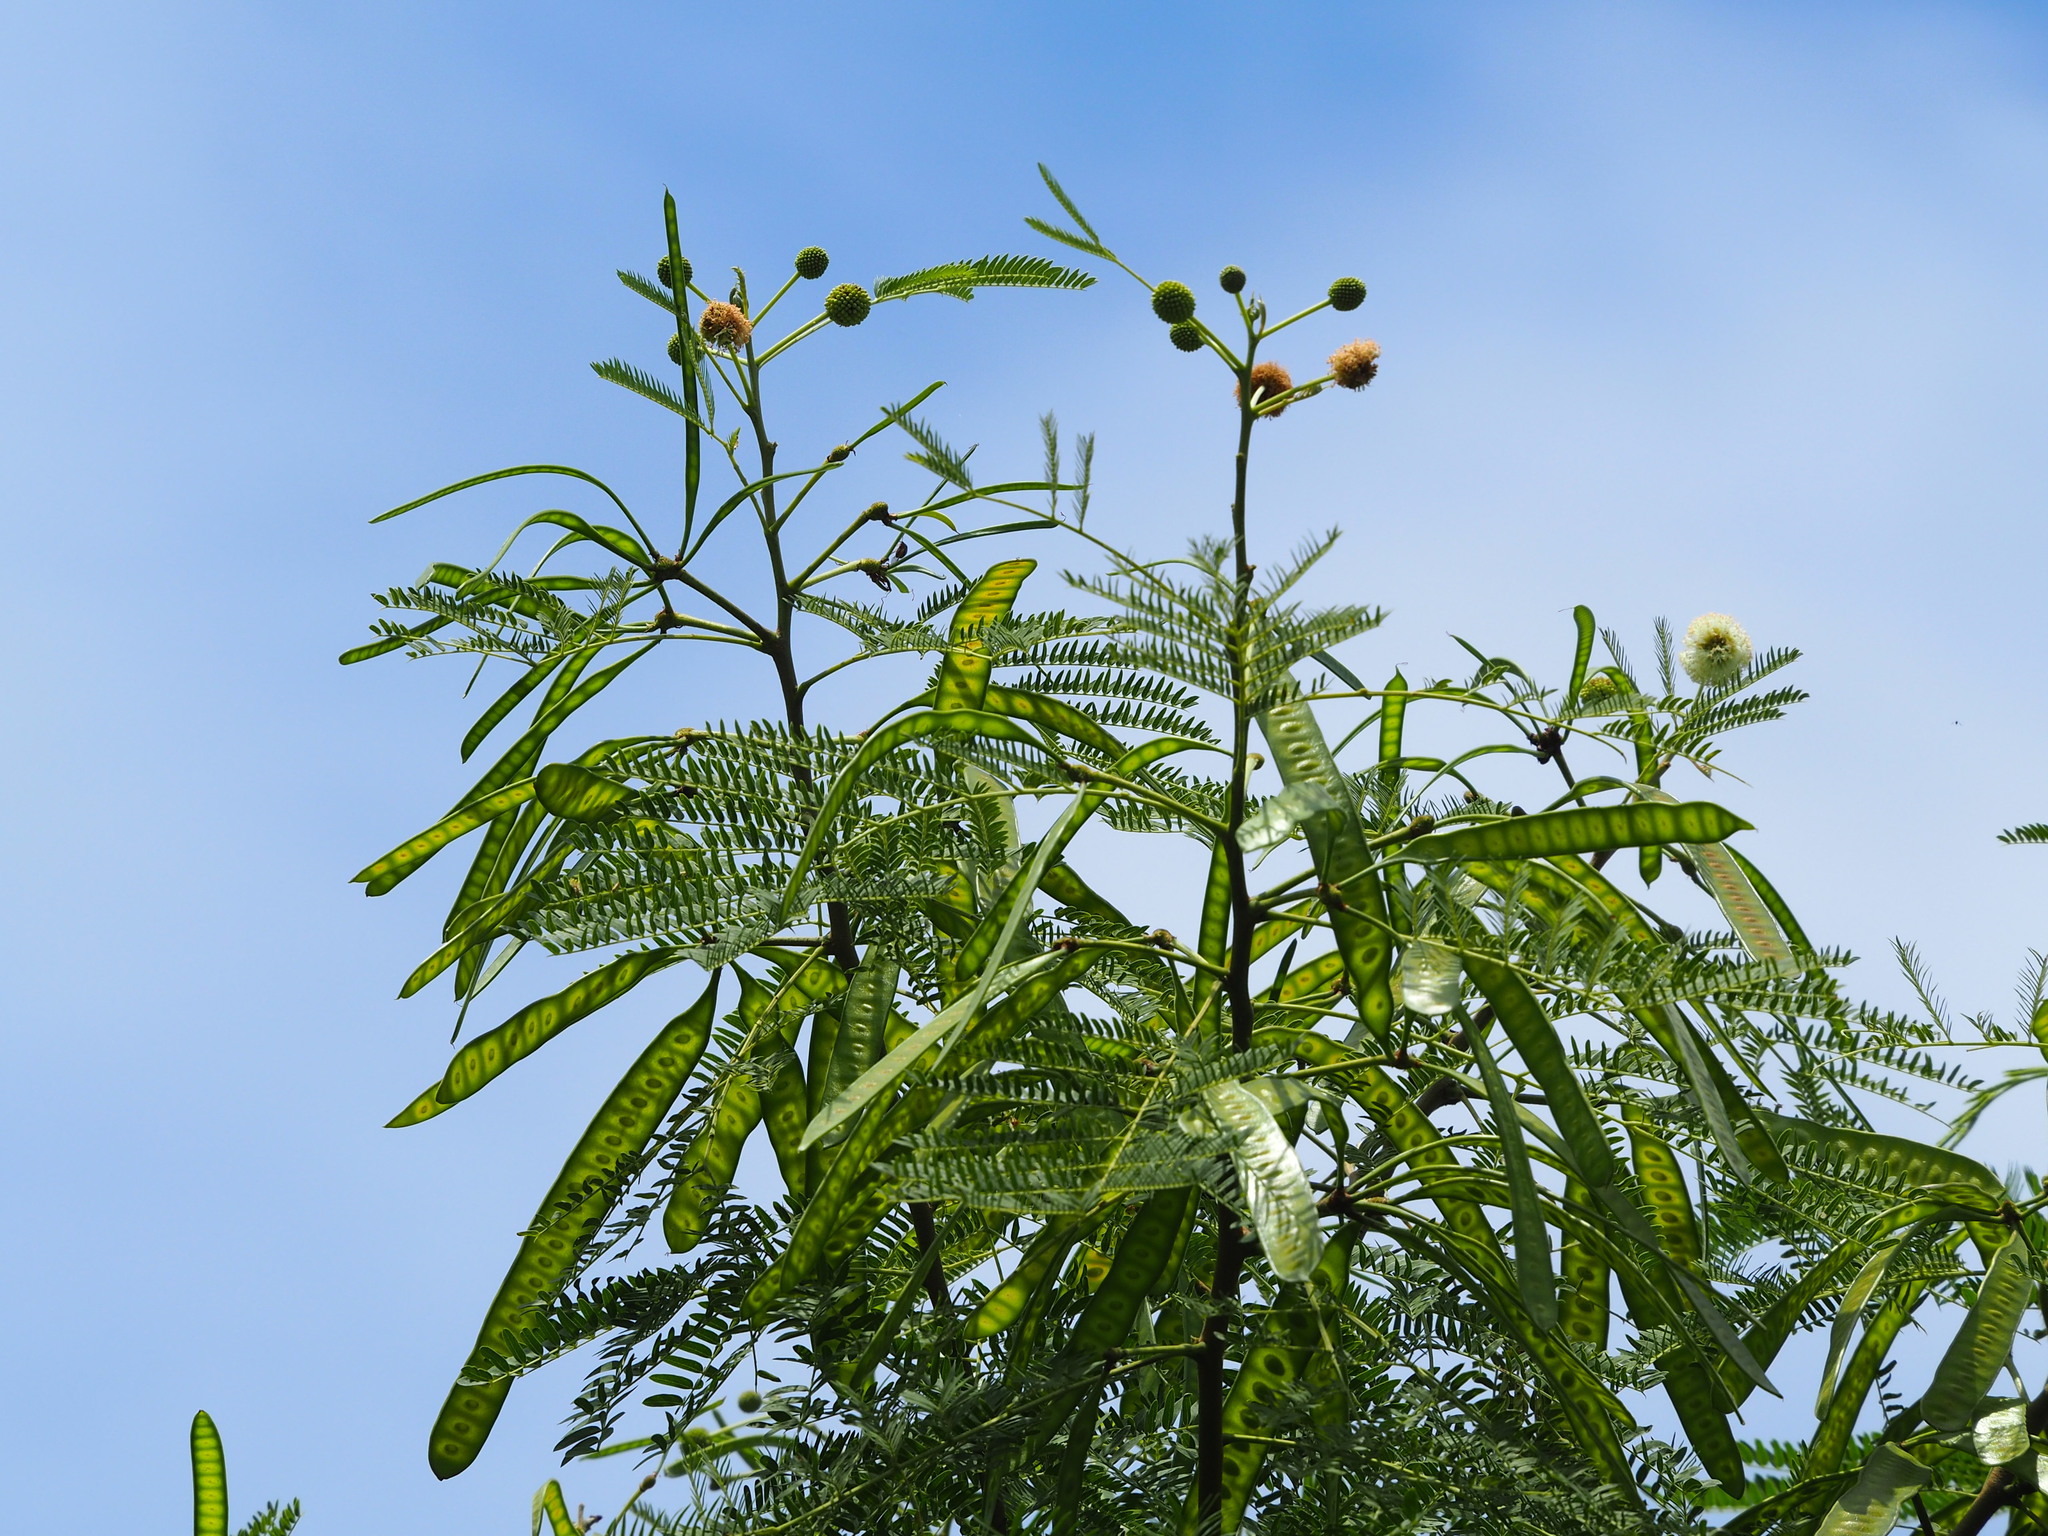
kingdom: Plantae
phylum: Tracheophyta
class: Magnoliopsida
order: Fabales
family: Fabaceae
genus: Leucaena
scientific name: Leucaena leucocephala
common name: White leadtree
